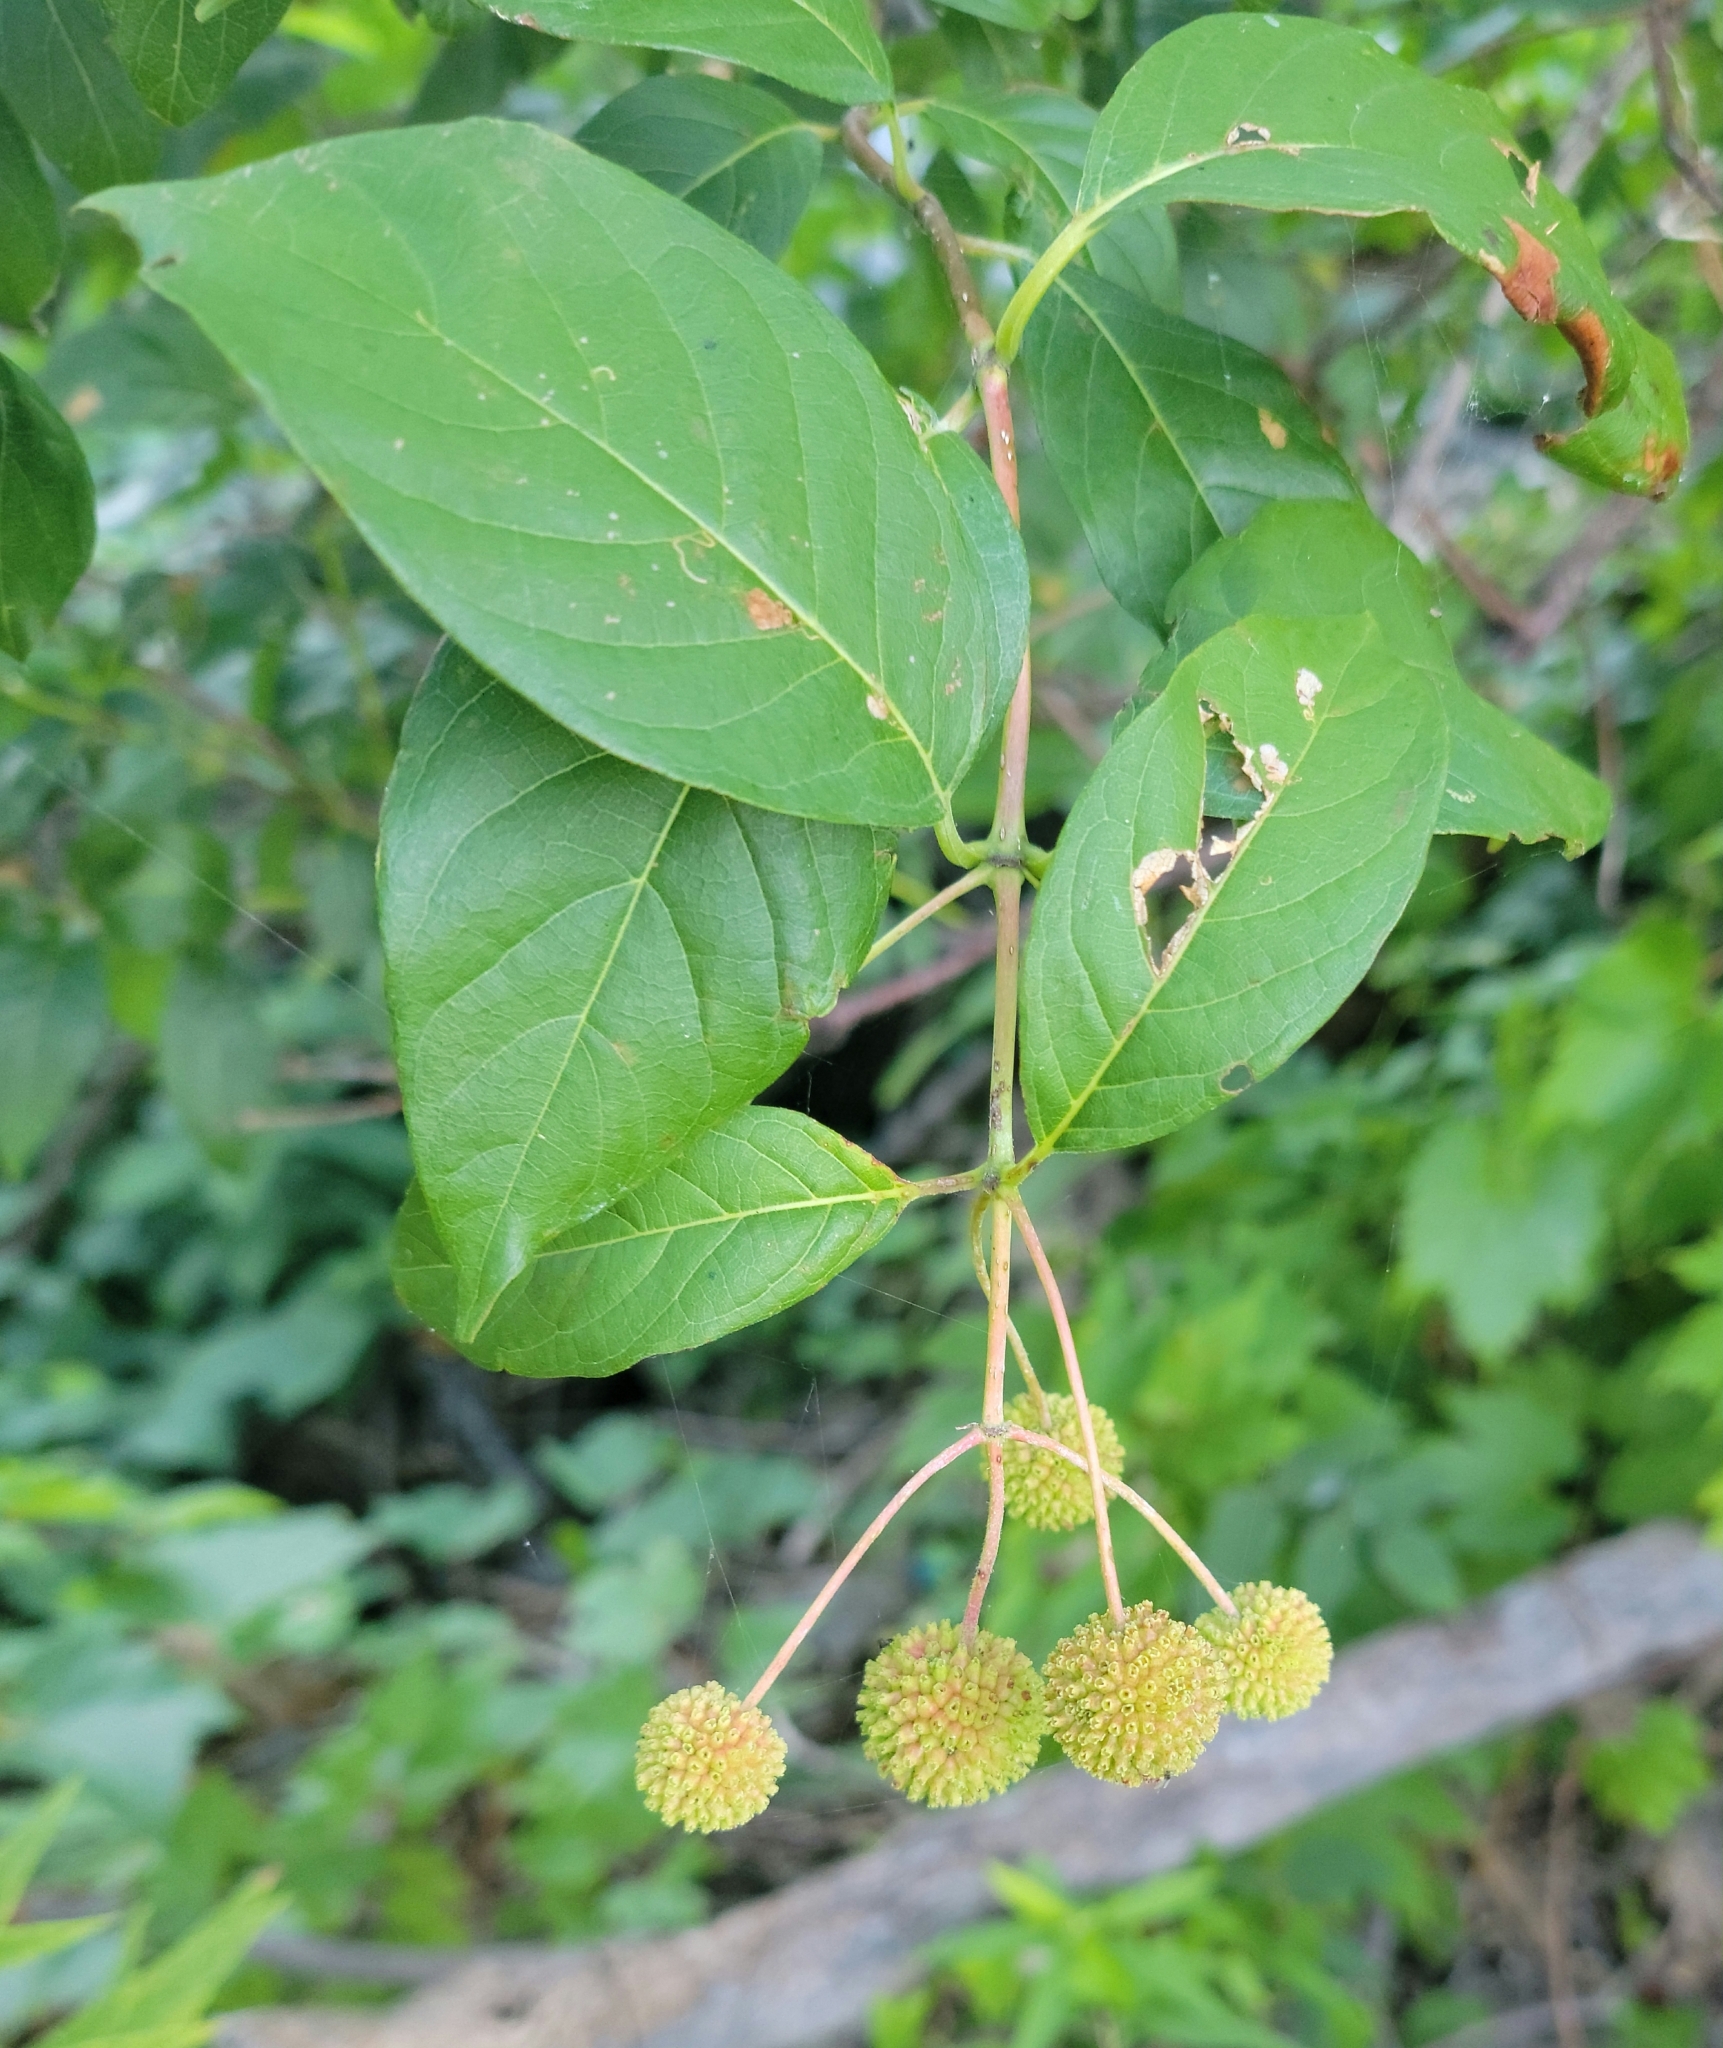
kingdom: Plantae
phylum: Tracheophyta
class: Magnoliopsida
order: Gentianales
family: Rubiaceae
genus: Cephalanthus
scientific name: Cephalanthus occidentalis
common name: Button-willow
